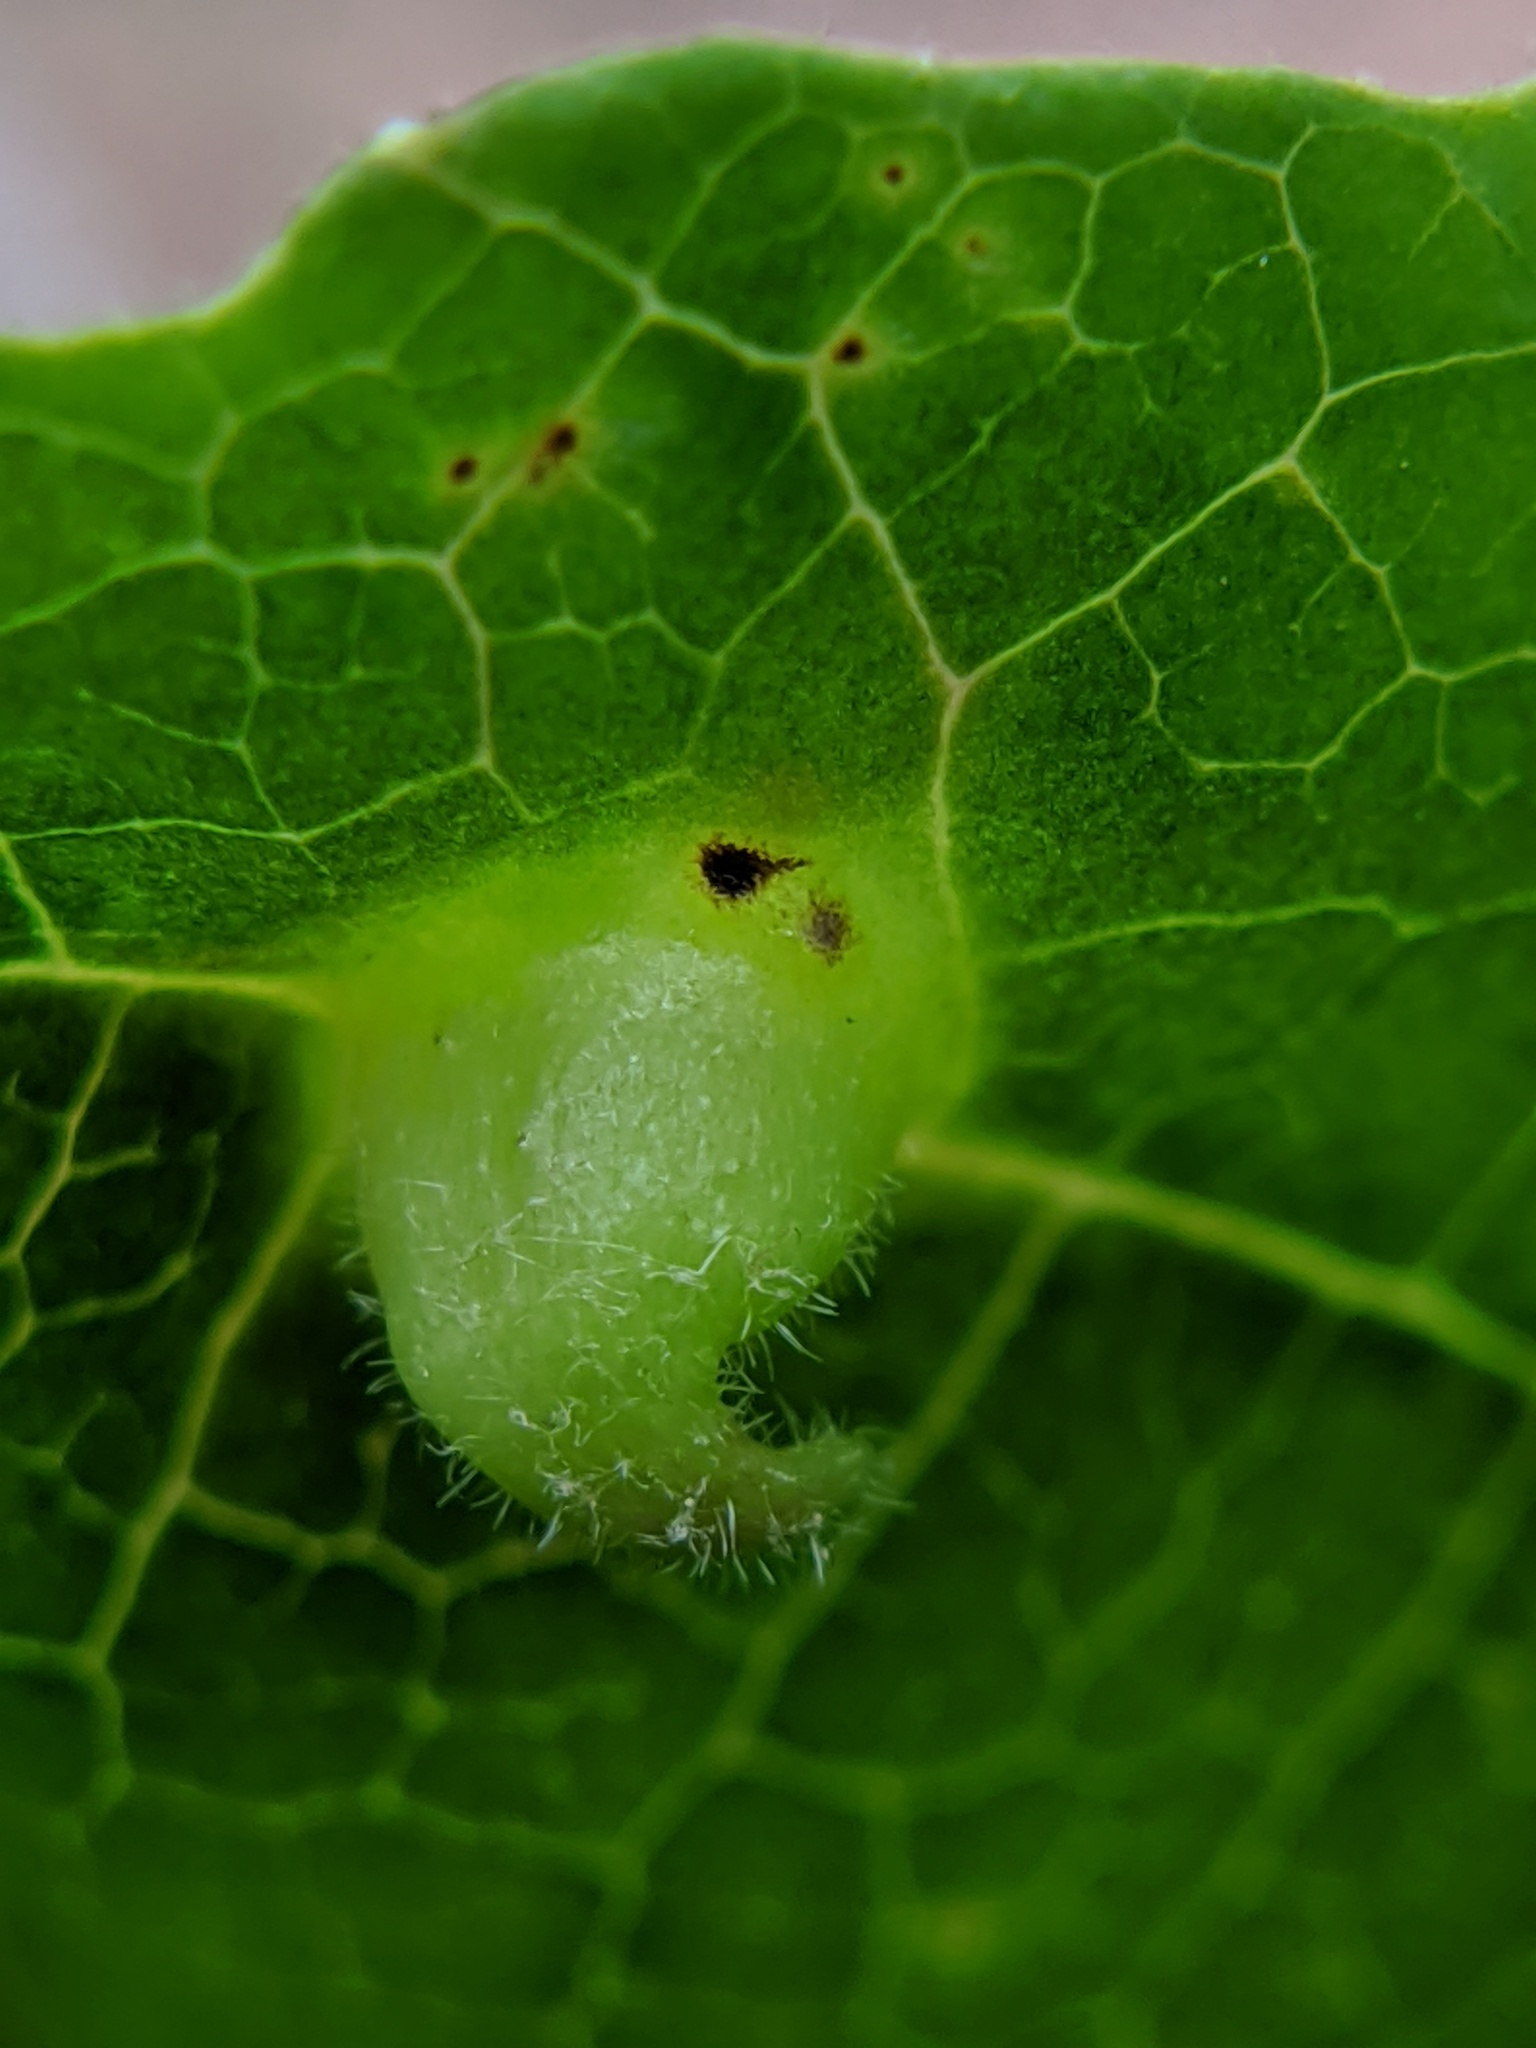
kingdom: Animalia
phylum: Arthropoda
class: Insecta
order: Hemiptera
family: Aphididae
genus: Hormaphis
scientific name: Hormaphis hamamelidis
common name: Witch-hazel cone gall aphid
